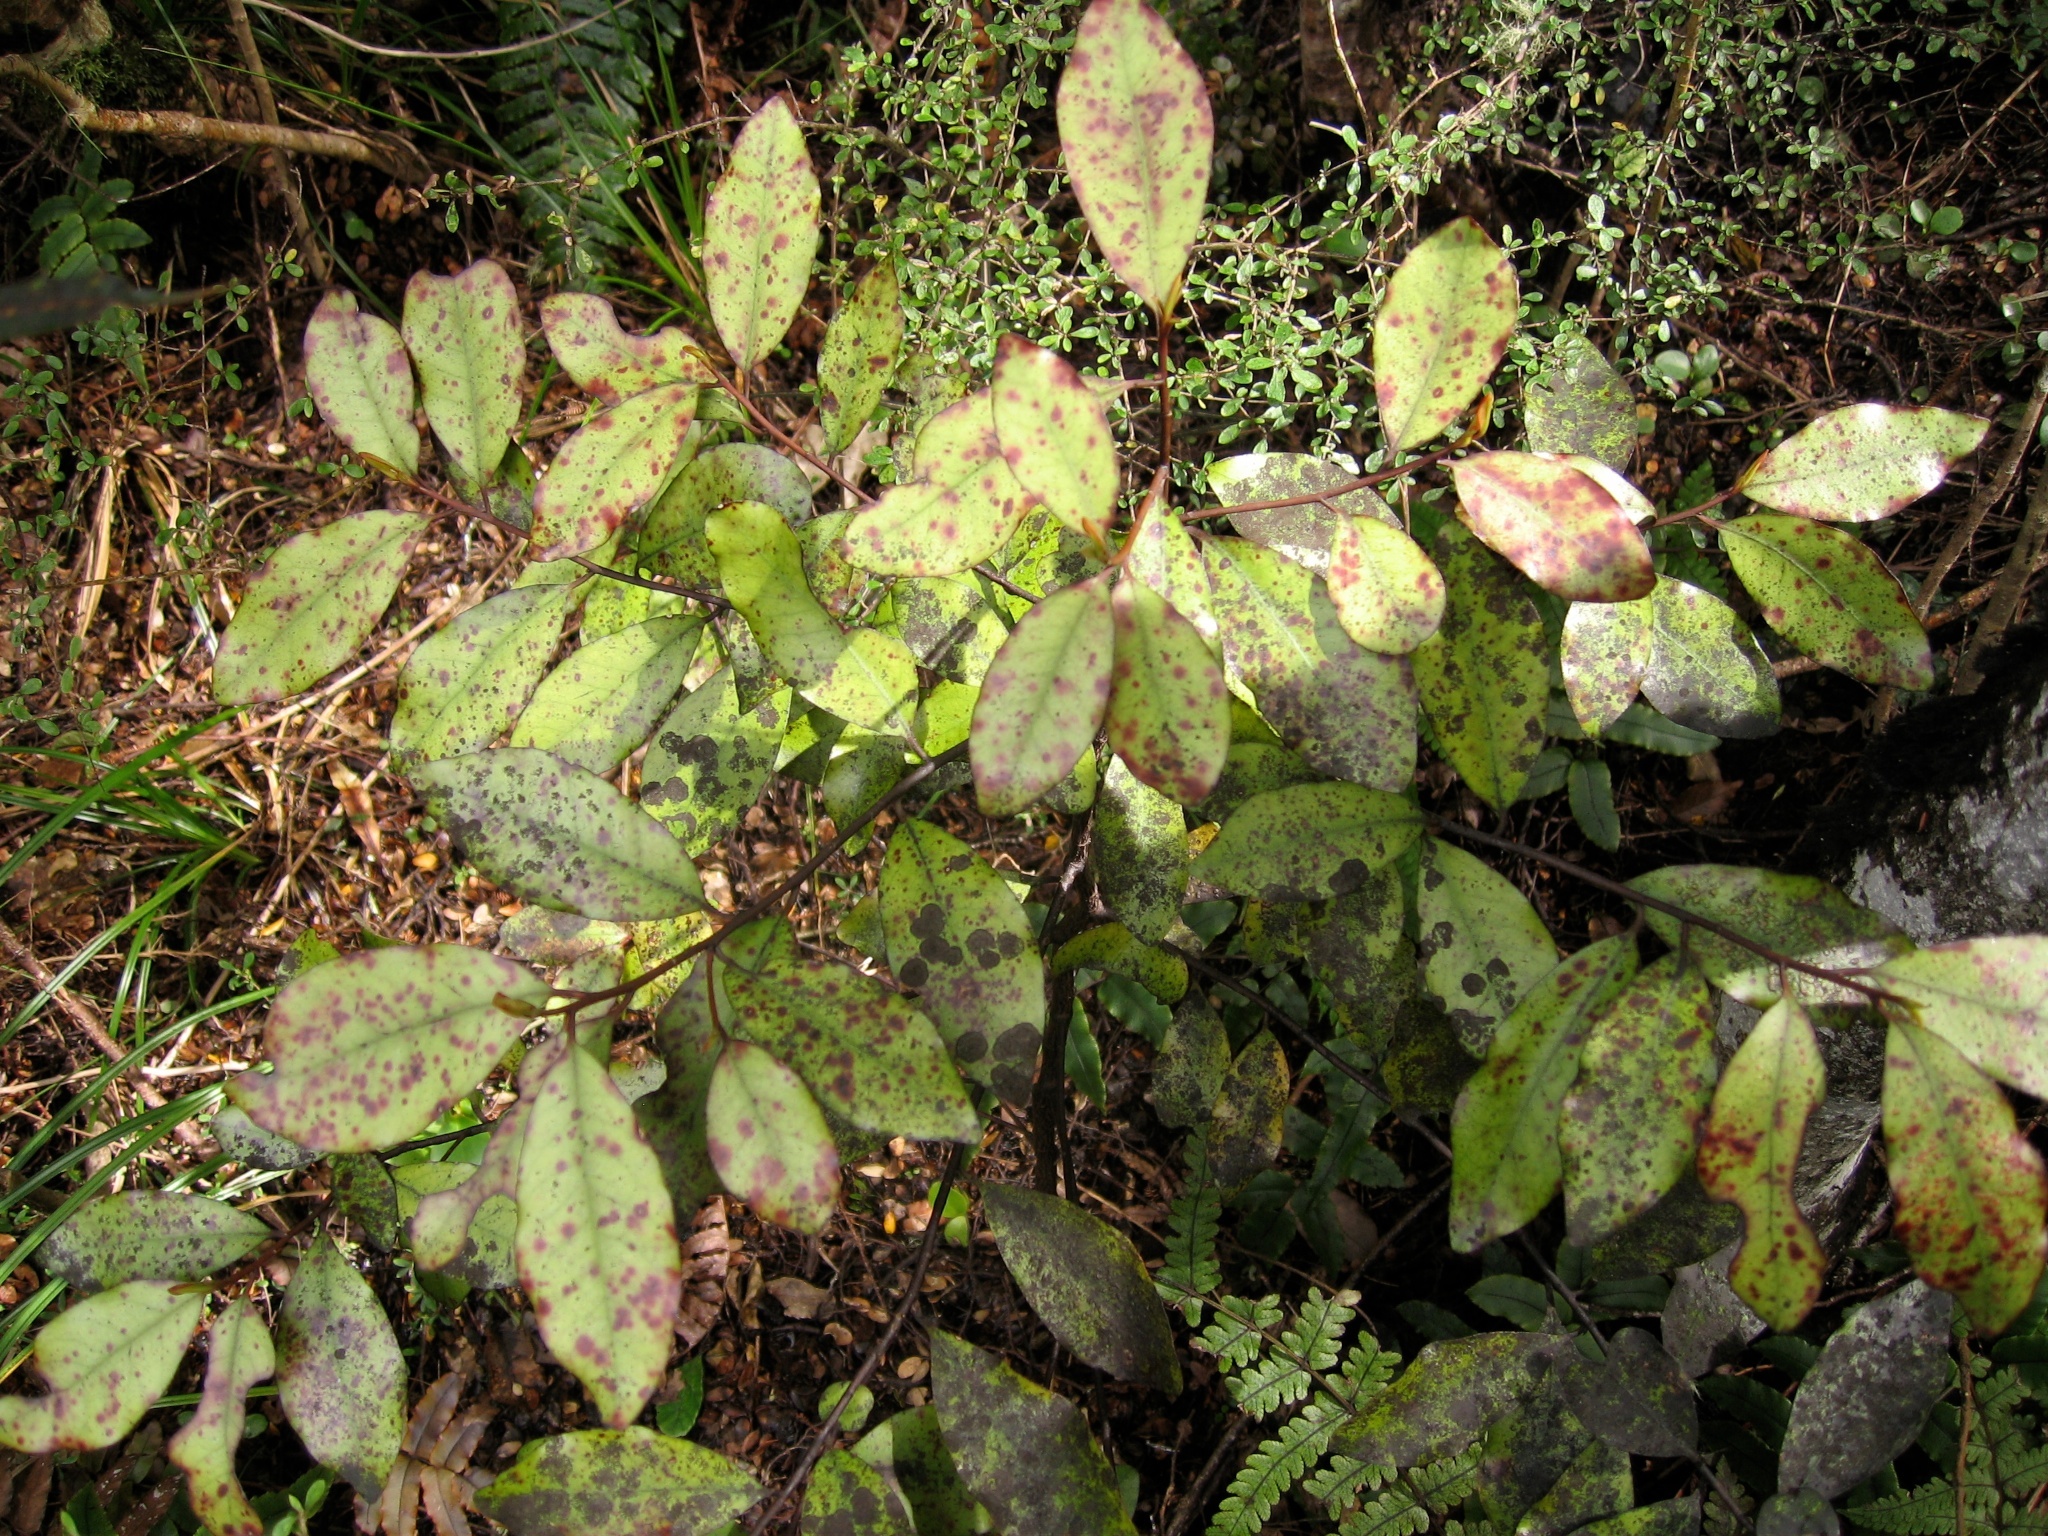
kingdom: Plantae
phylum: Tracheophyta
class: Magnoliopsida
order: Canellales
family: Winteraceae
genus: Pseudowintera
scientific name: Pseudowintera colorata
